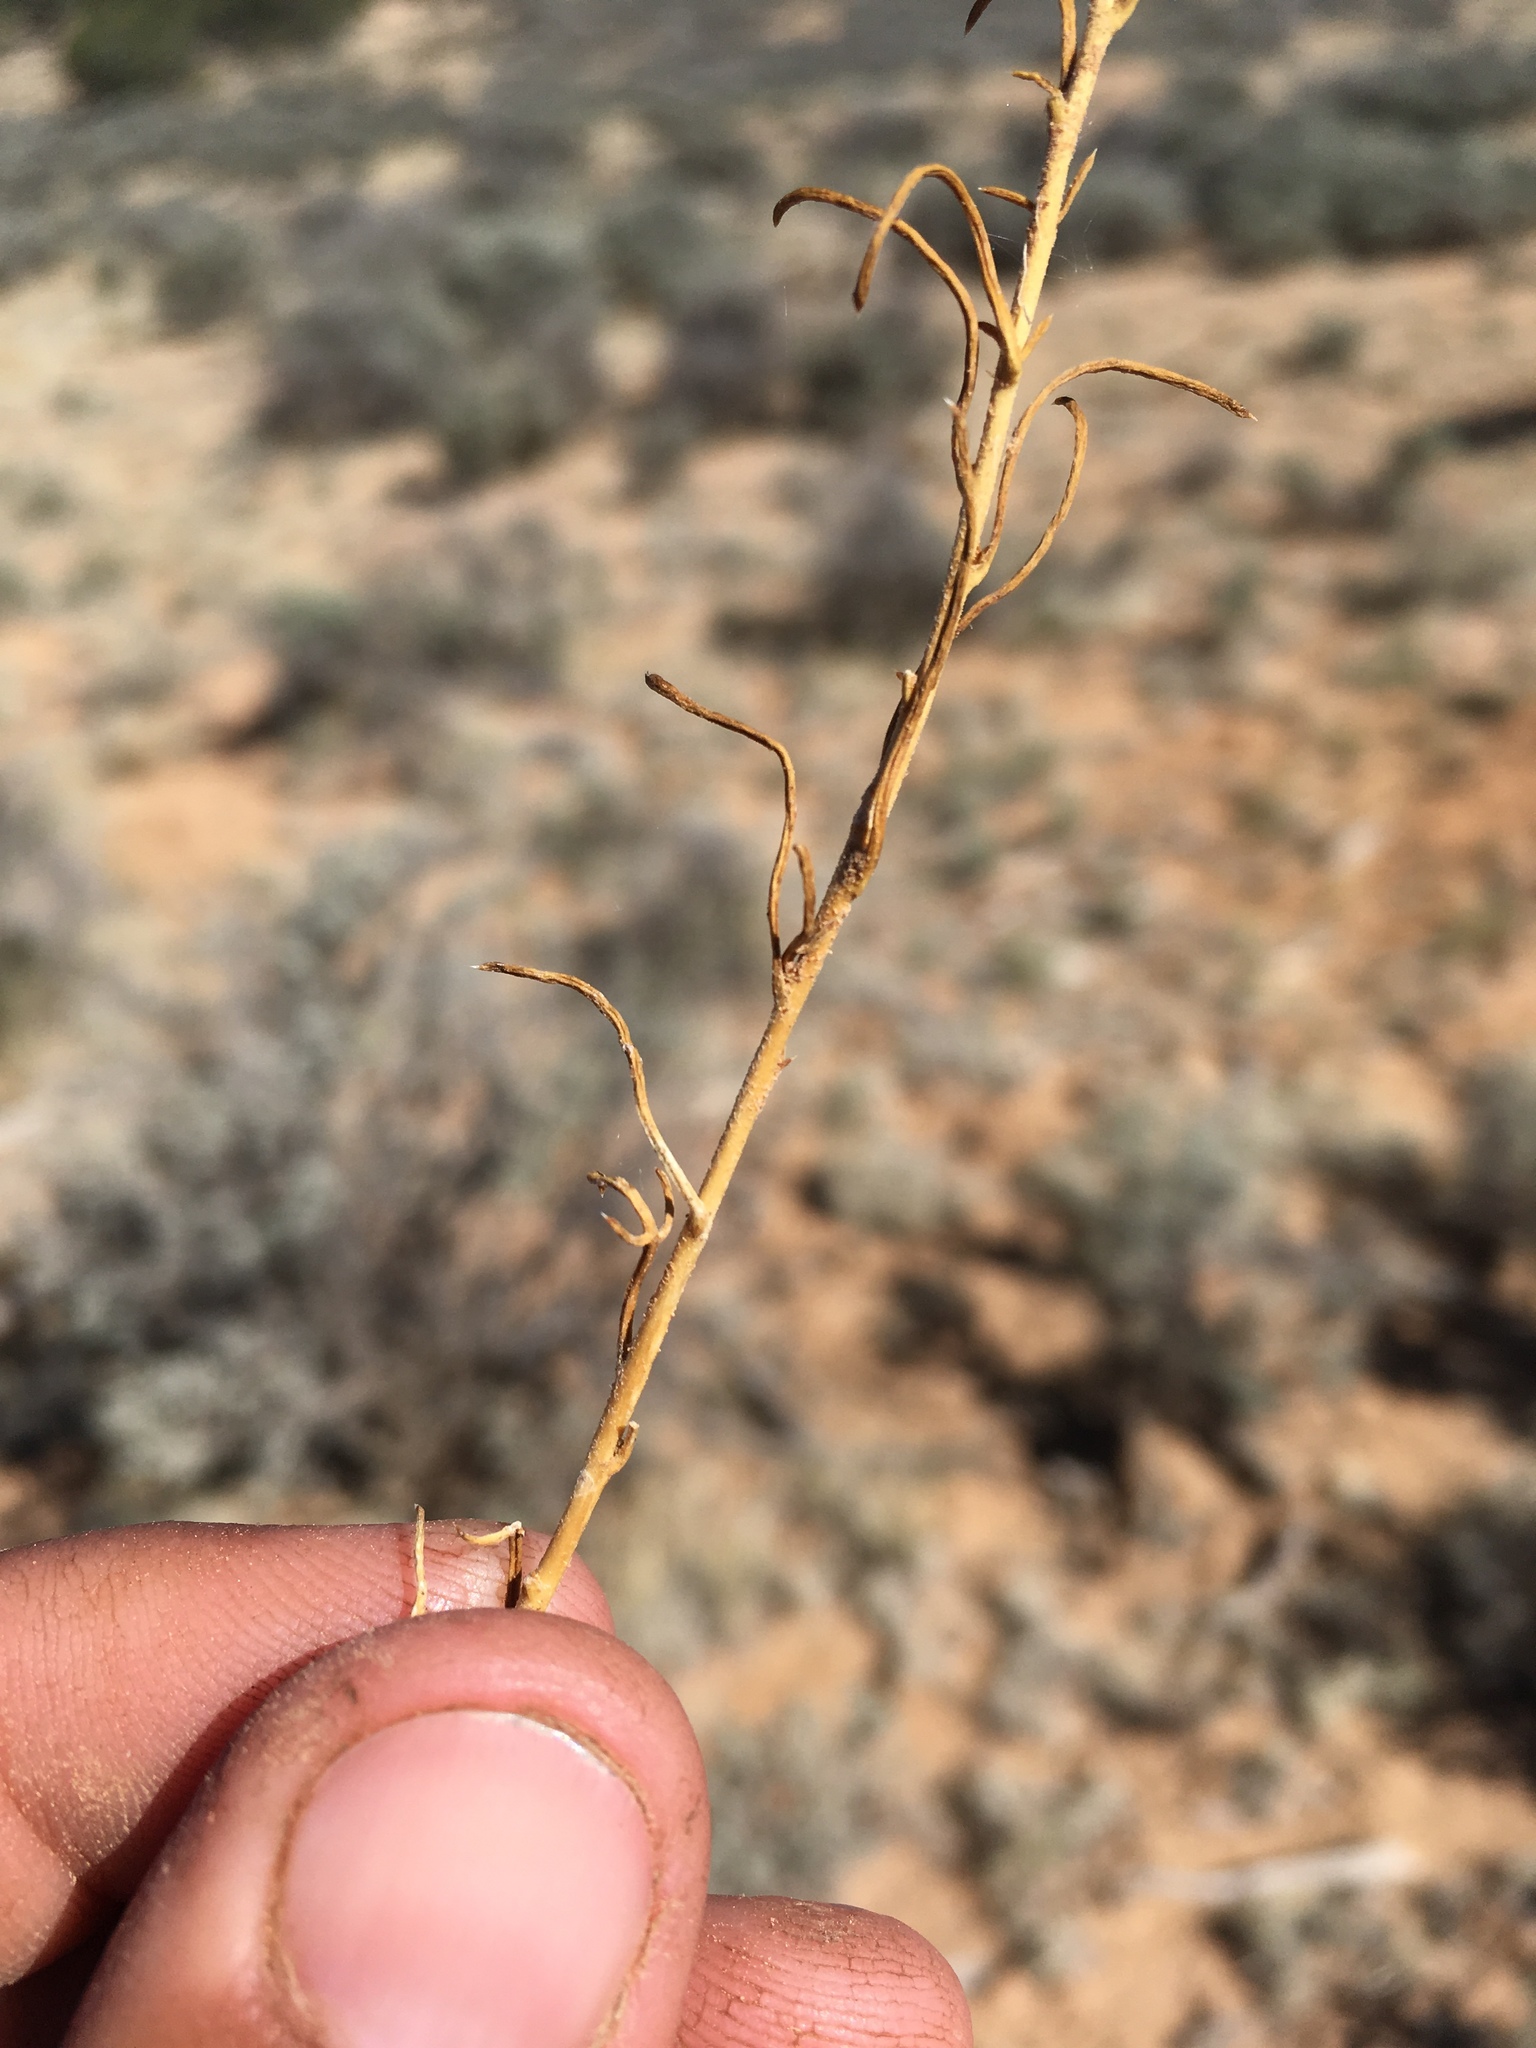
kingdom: Plantae
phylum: Tracheophyta
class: Magnoliopsida
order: Ericales
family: Polemoniaceae
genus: Ipomopsis
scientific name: Ipomopsis multiflora
